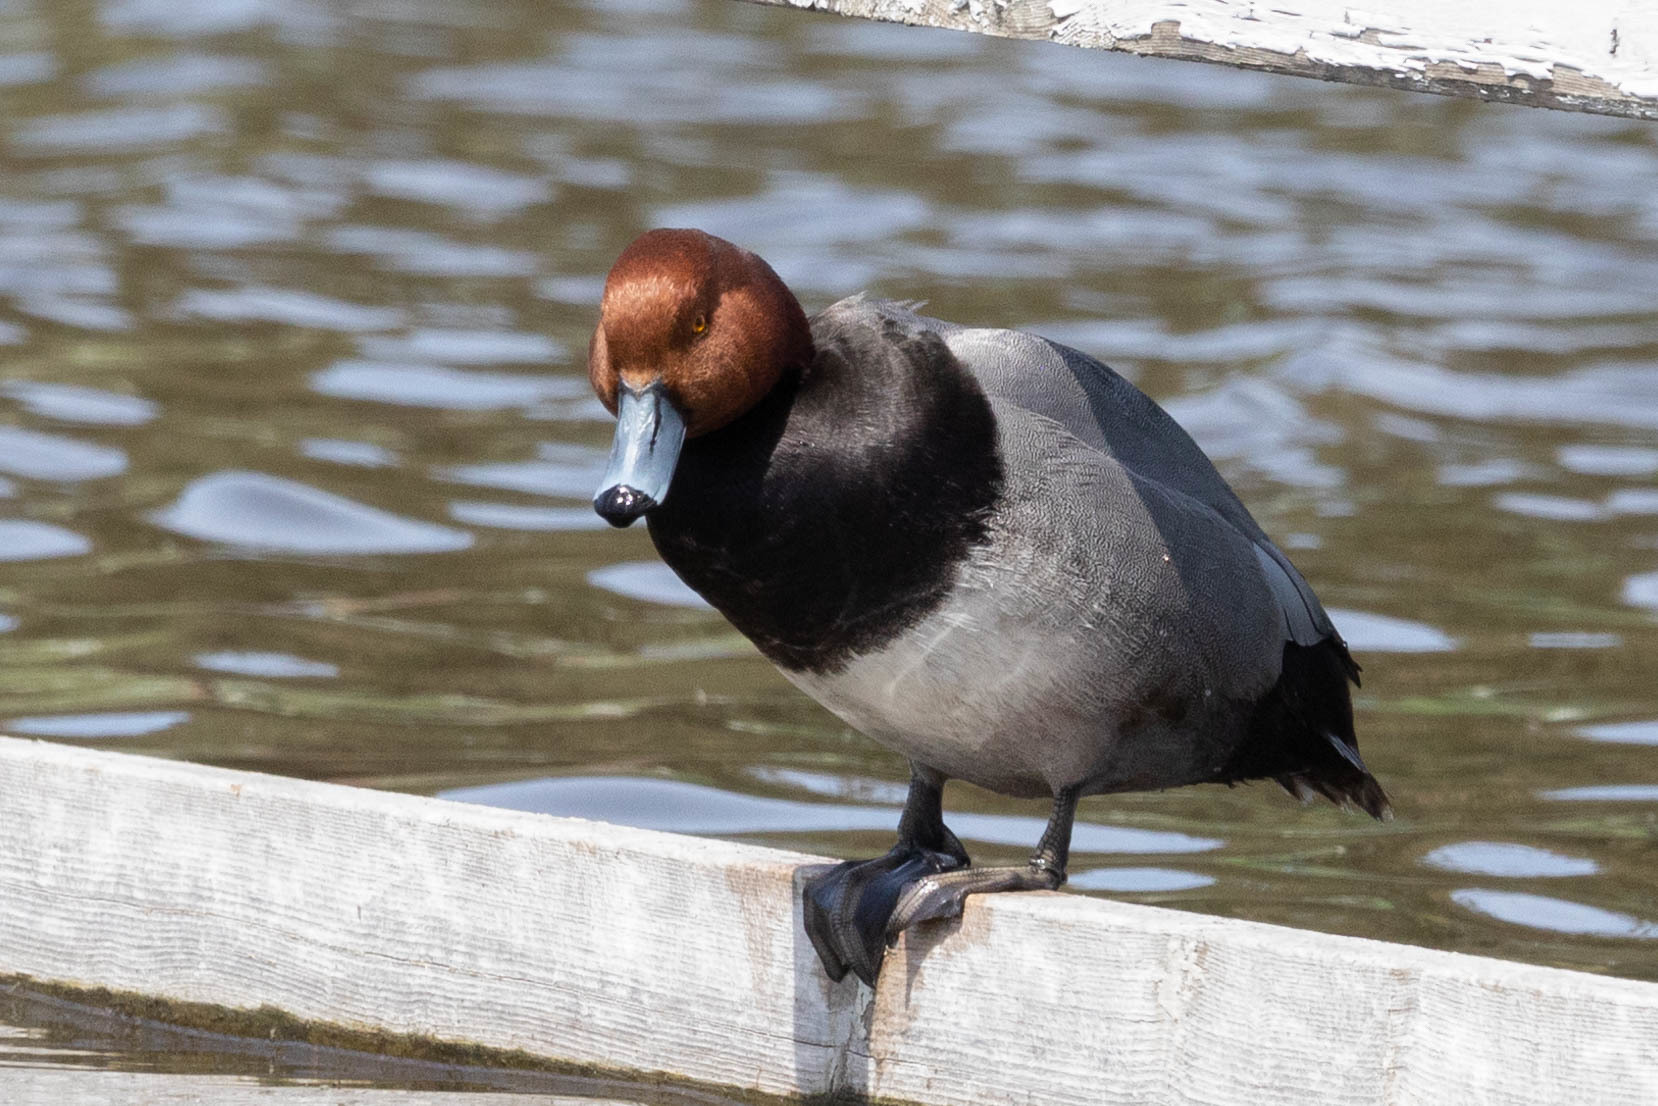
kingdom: Animalia
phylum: Chordata
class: Aves
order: Anseriformes
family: Anatidae
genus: Aythya
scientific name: Aythya americana
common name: Redhead
